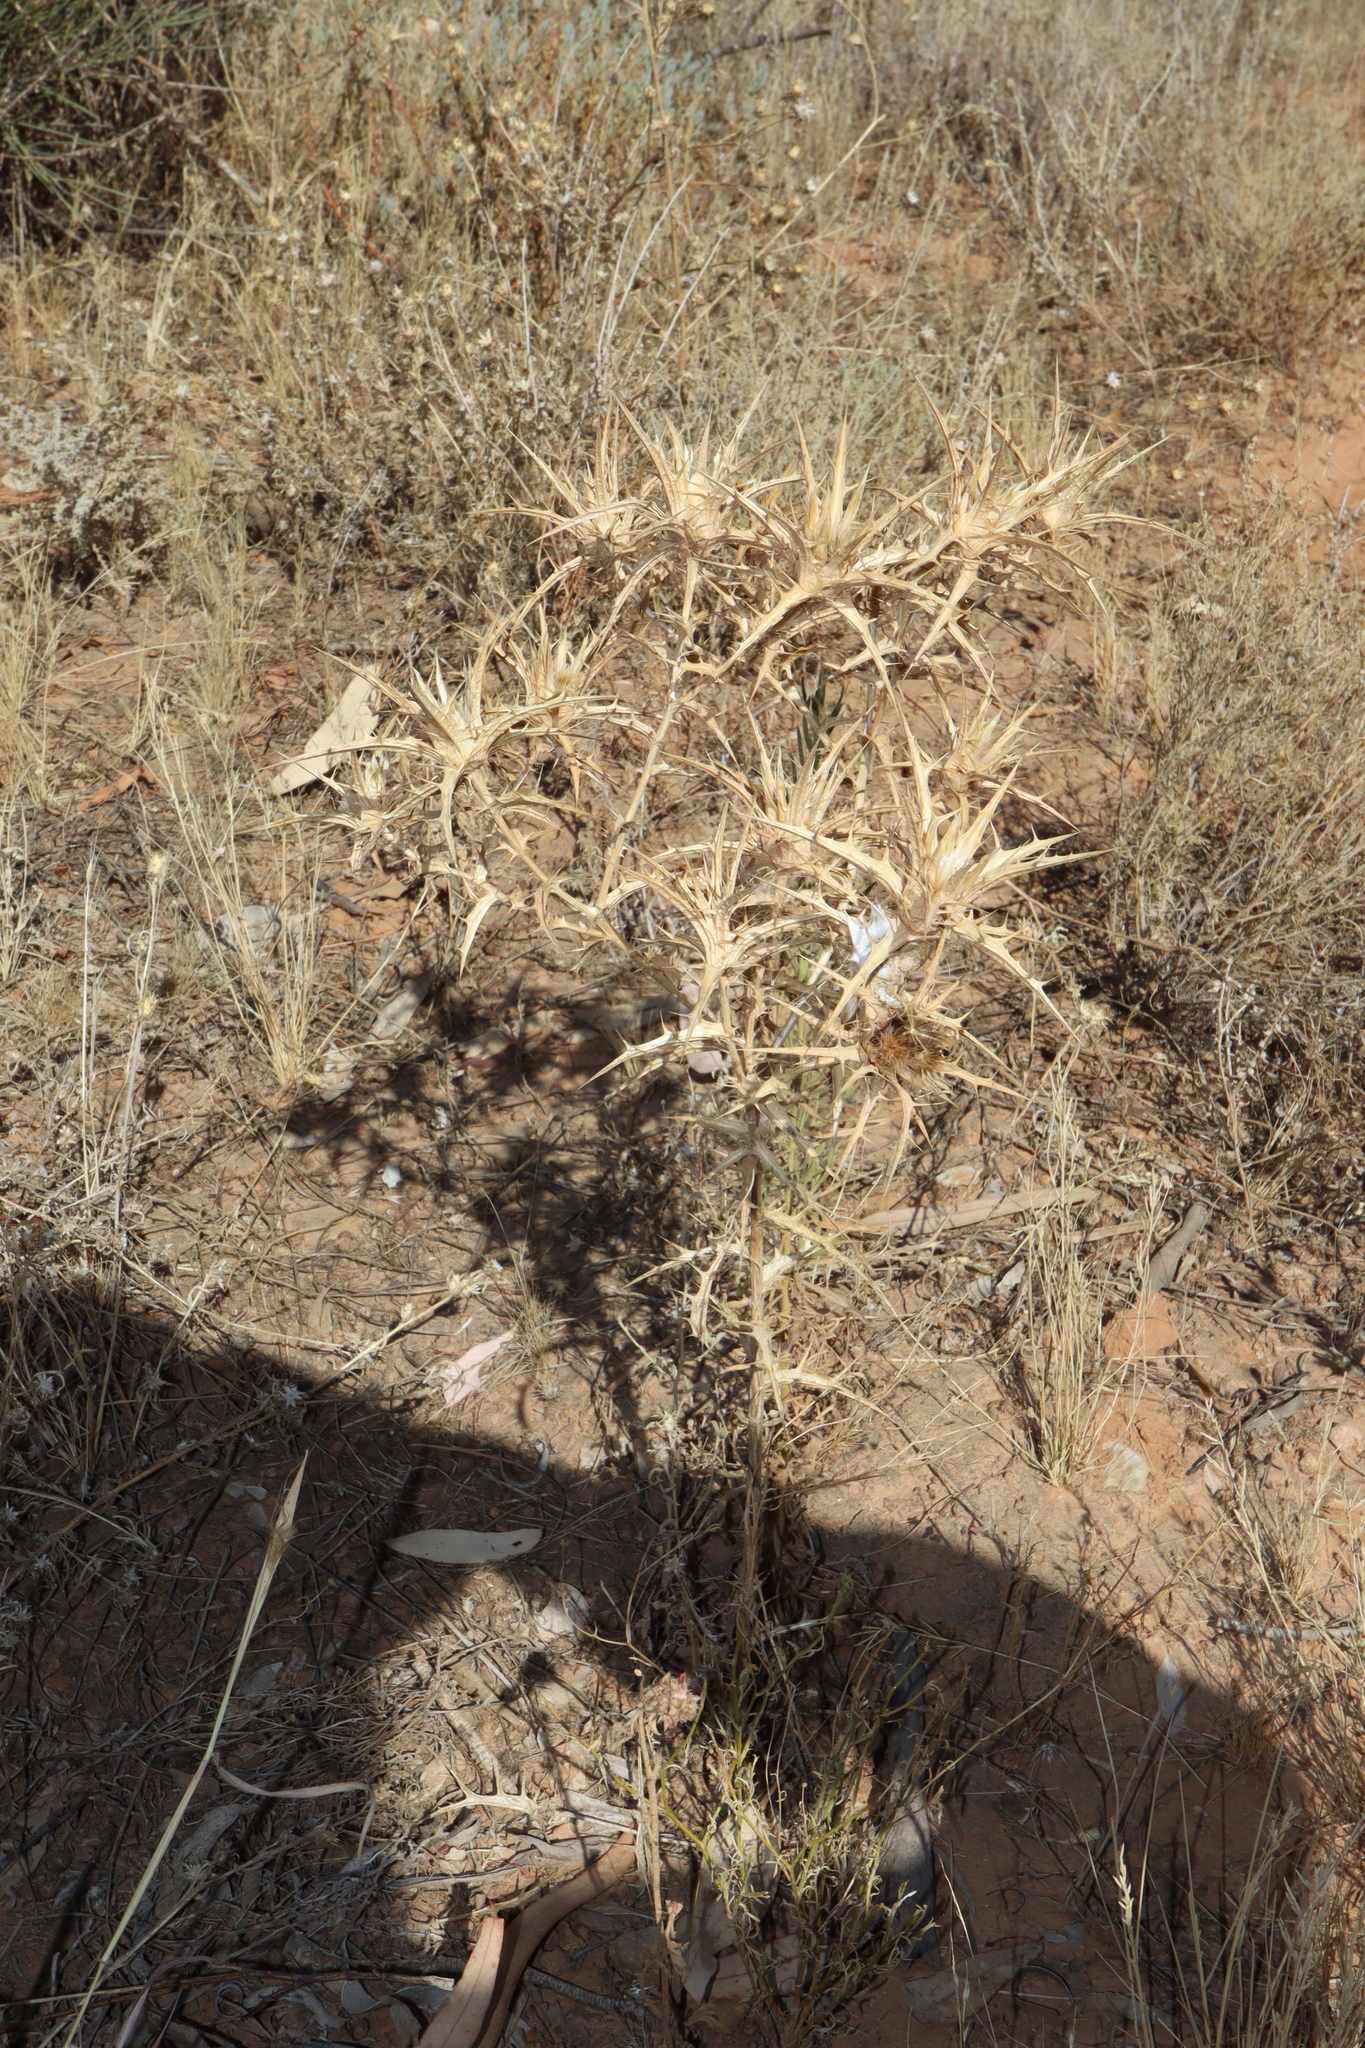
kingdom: Plantae
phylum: Tracheophyta
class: Magnoliopsida
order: Asterales
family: Asteraceae
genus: Carthamus
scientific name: Carthamus lanatus
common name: Downy safflower
